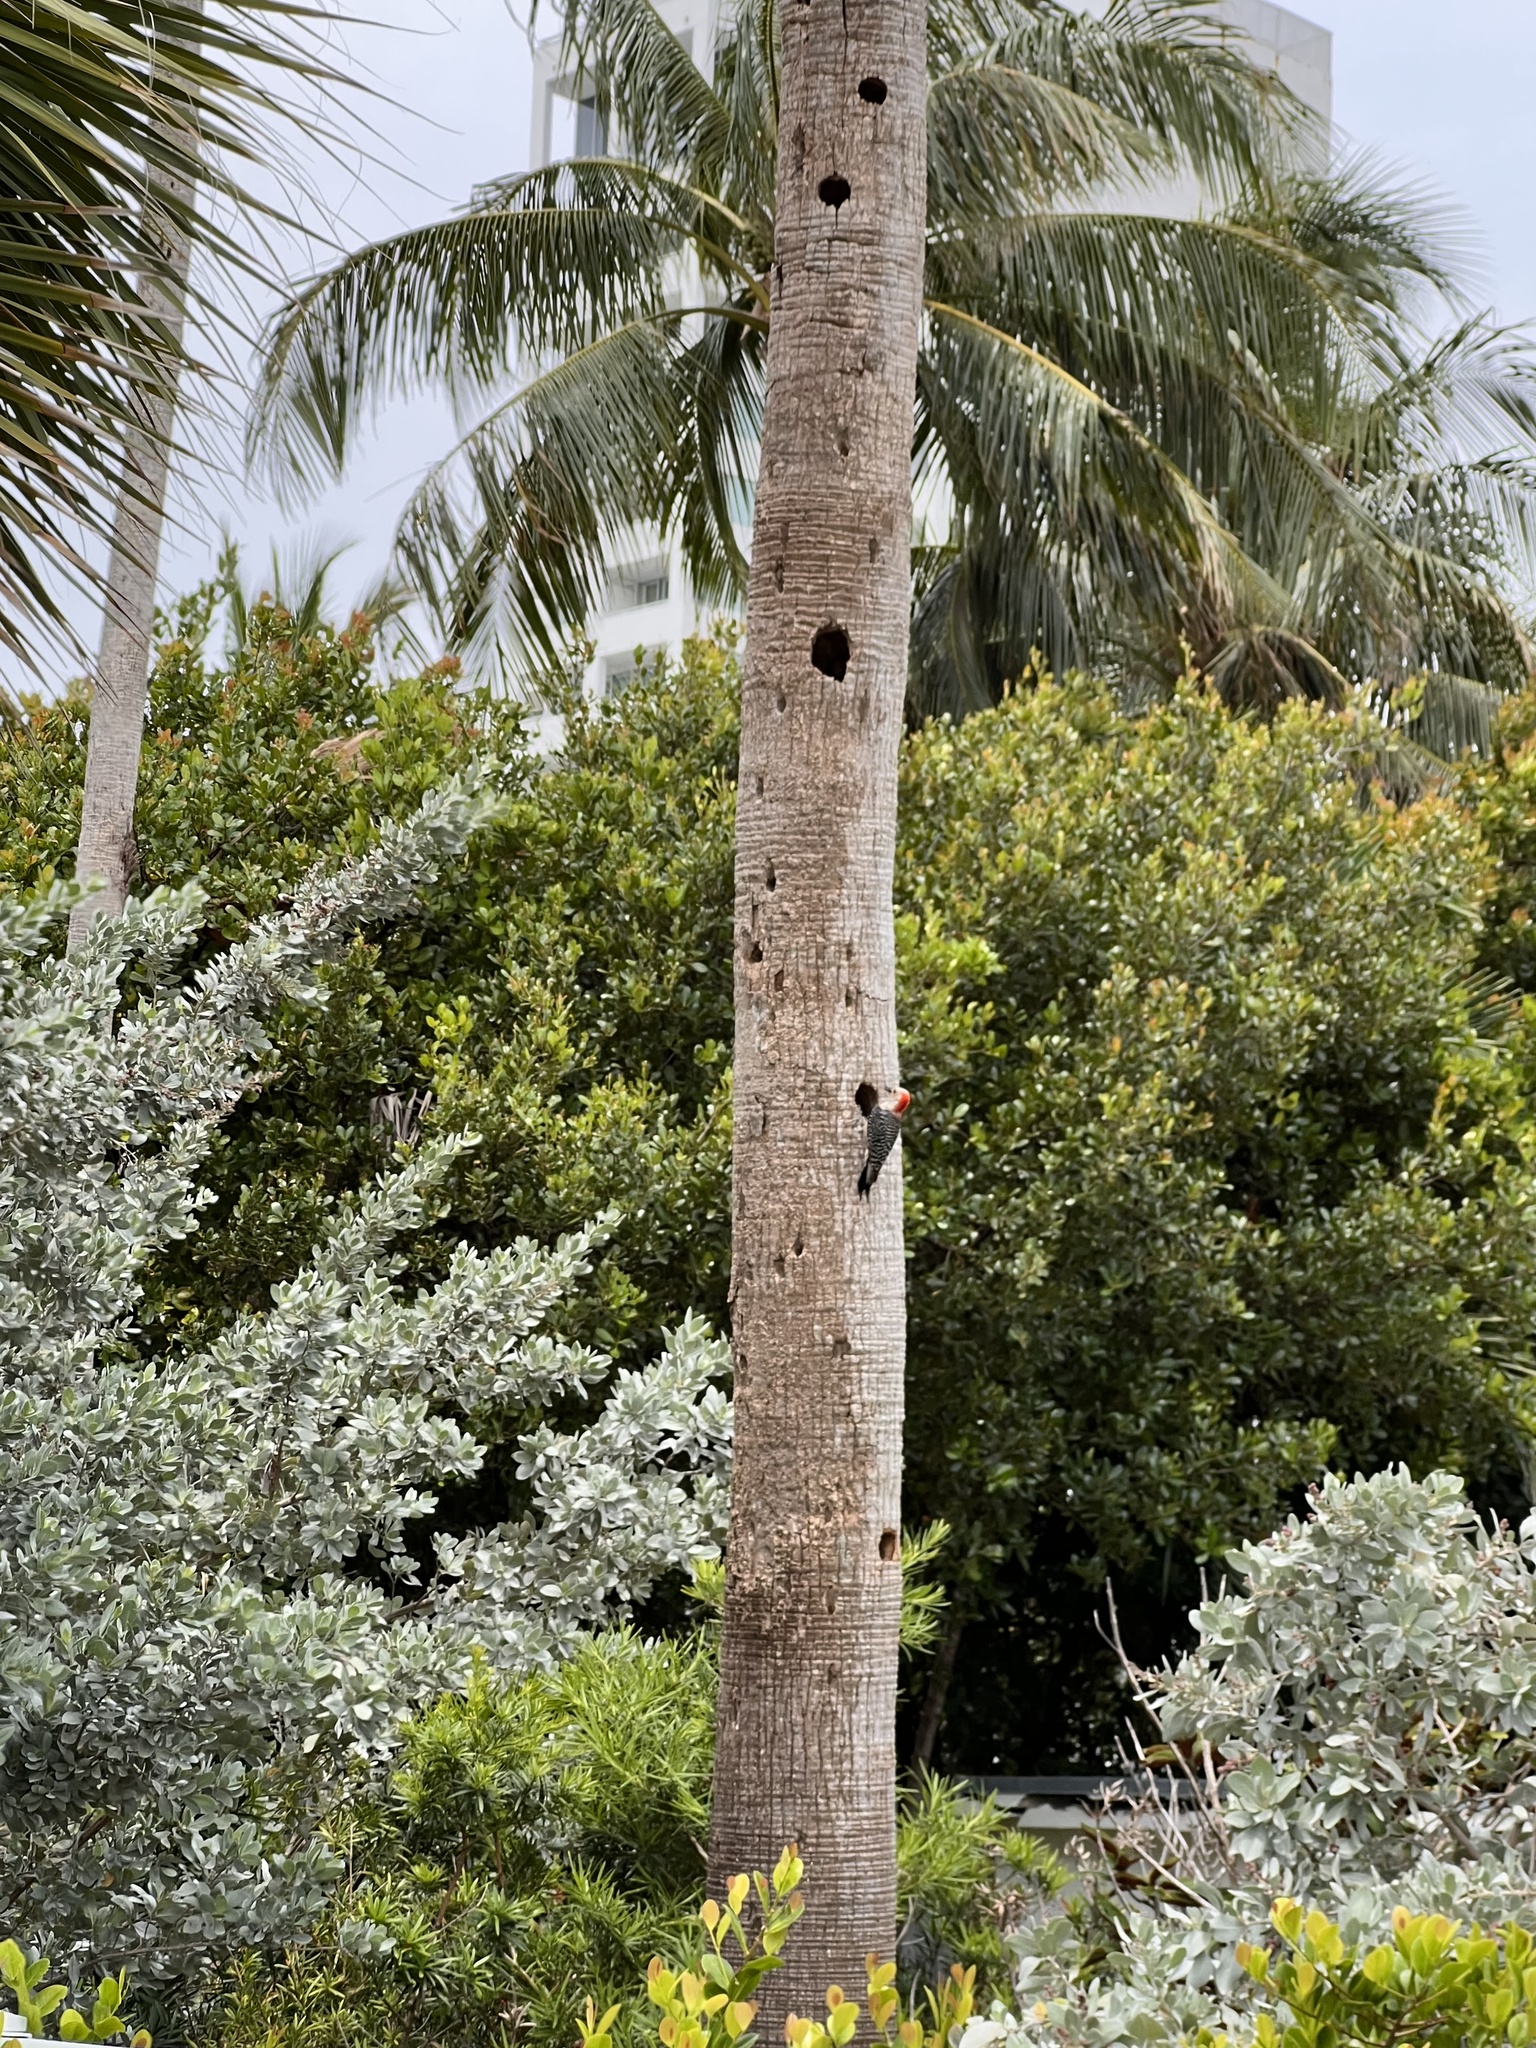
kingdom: Animalia
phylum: Chordata
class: Aves
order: Piciformes
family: Picidae
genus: Melanerpes
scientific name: Melanerpes carolinus
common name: Red-bellied woodpecker
